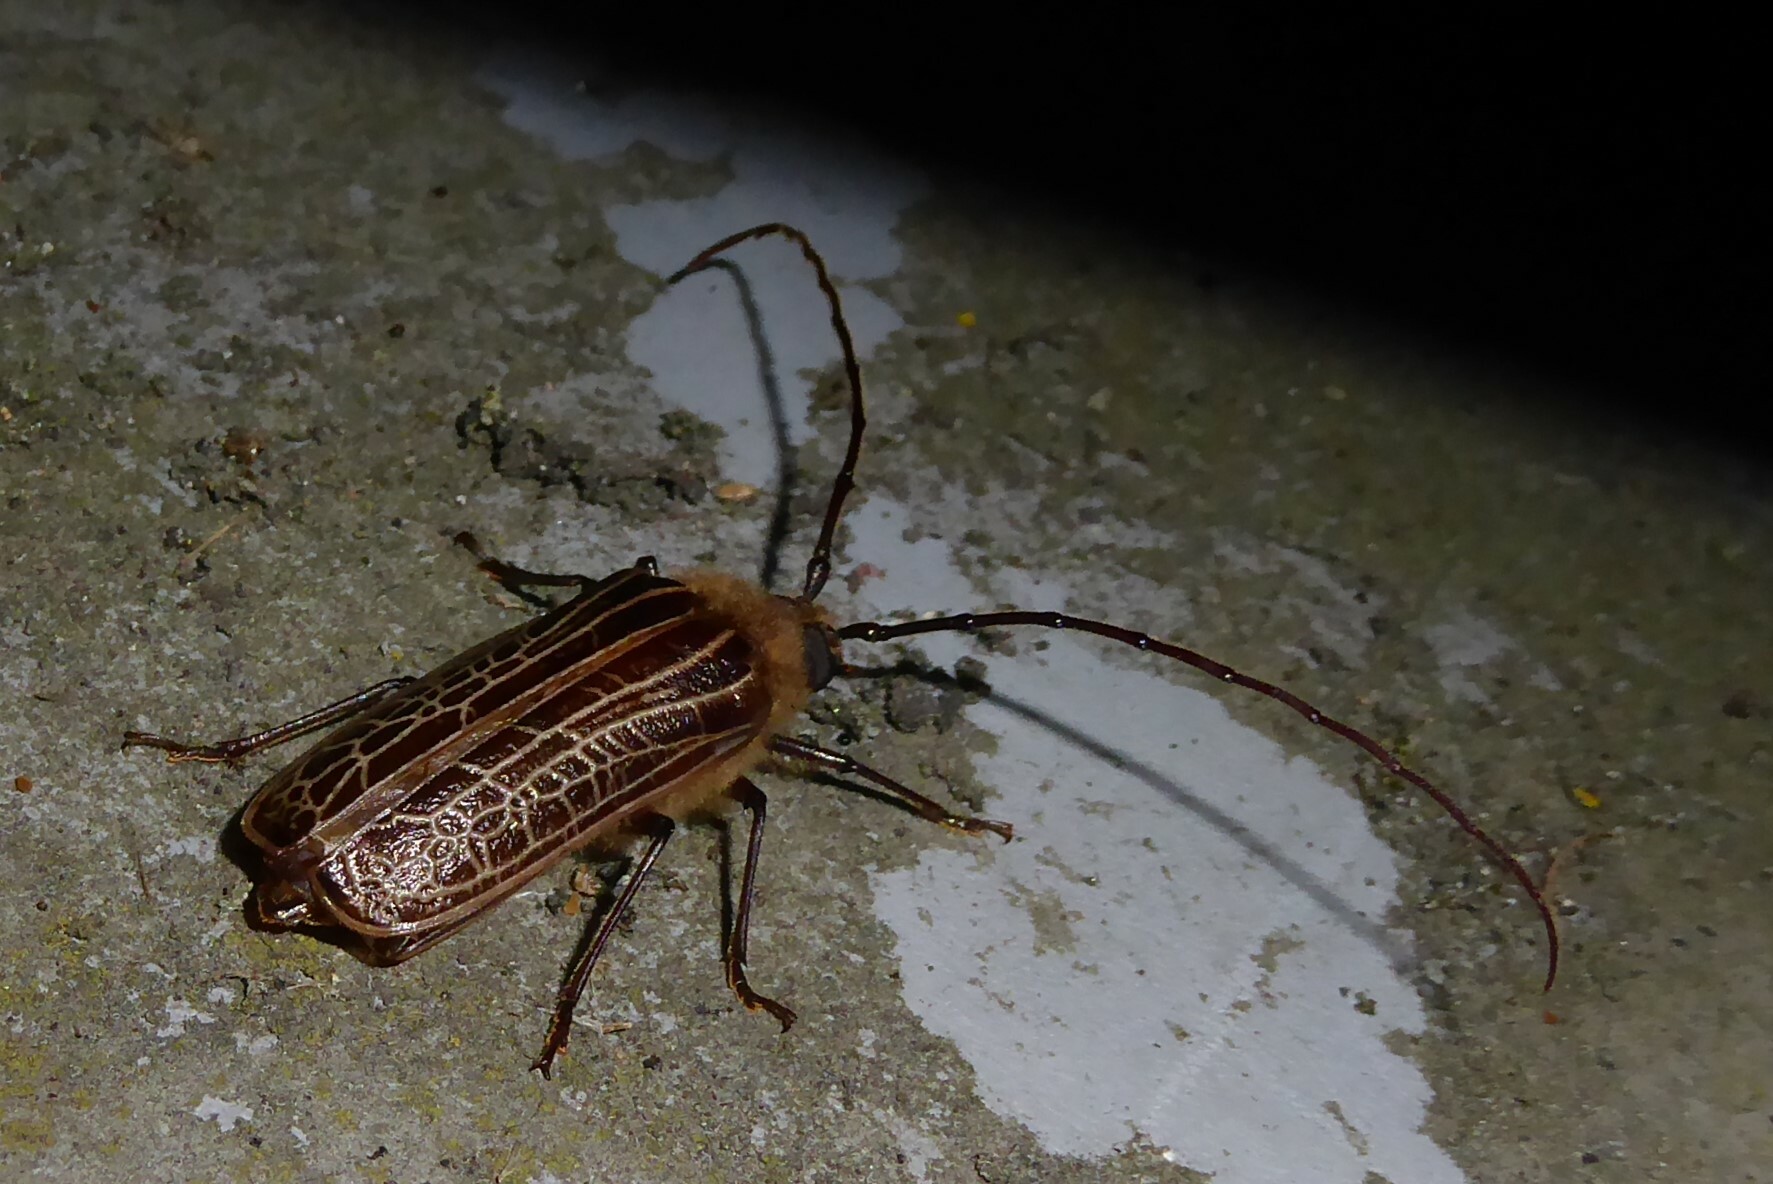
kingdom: Animalia
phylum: Arthropoda
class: Insecta
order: Coleoptera
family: Cerambycidae
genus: Prionoplus
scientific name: Prionoplus reticularis
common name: Huhu beetle
